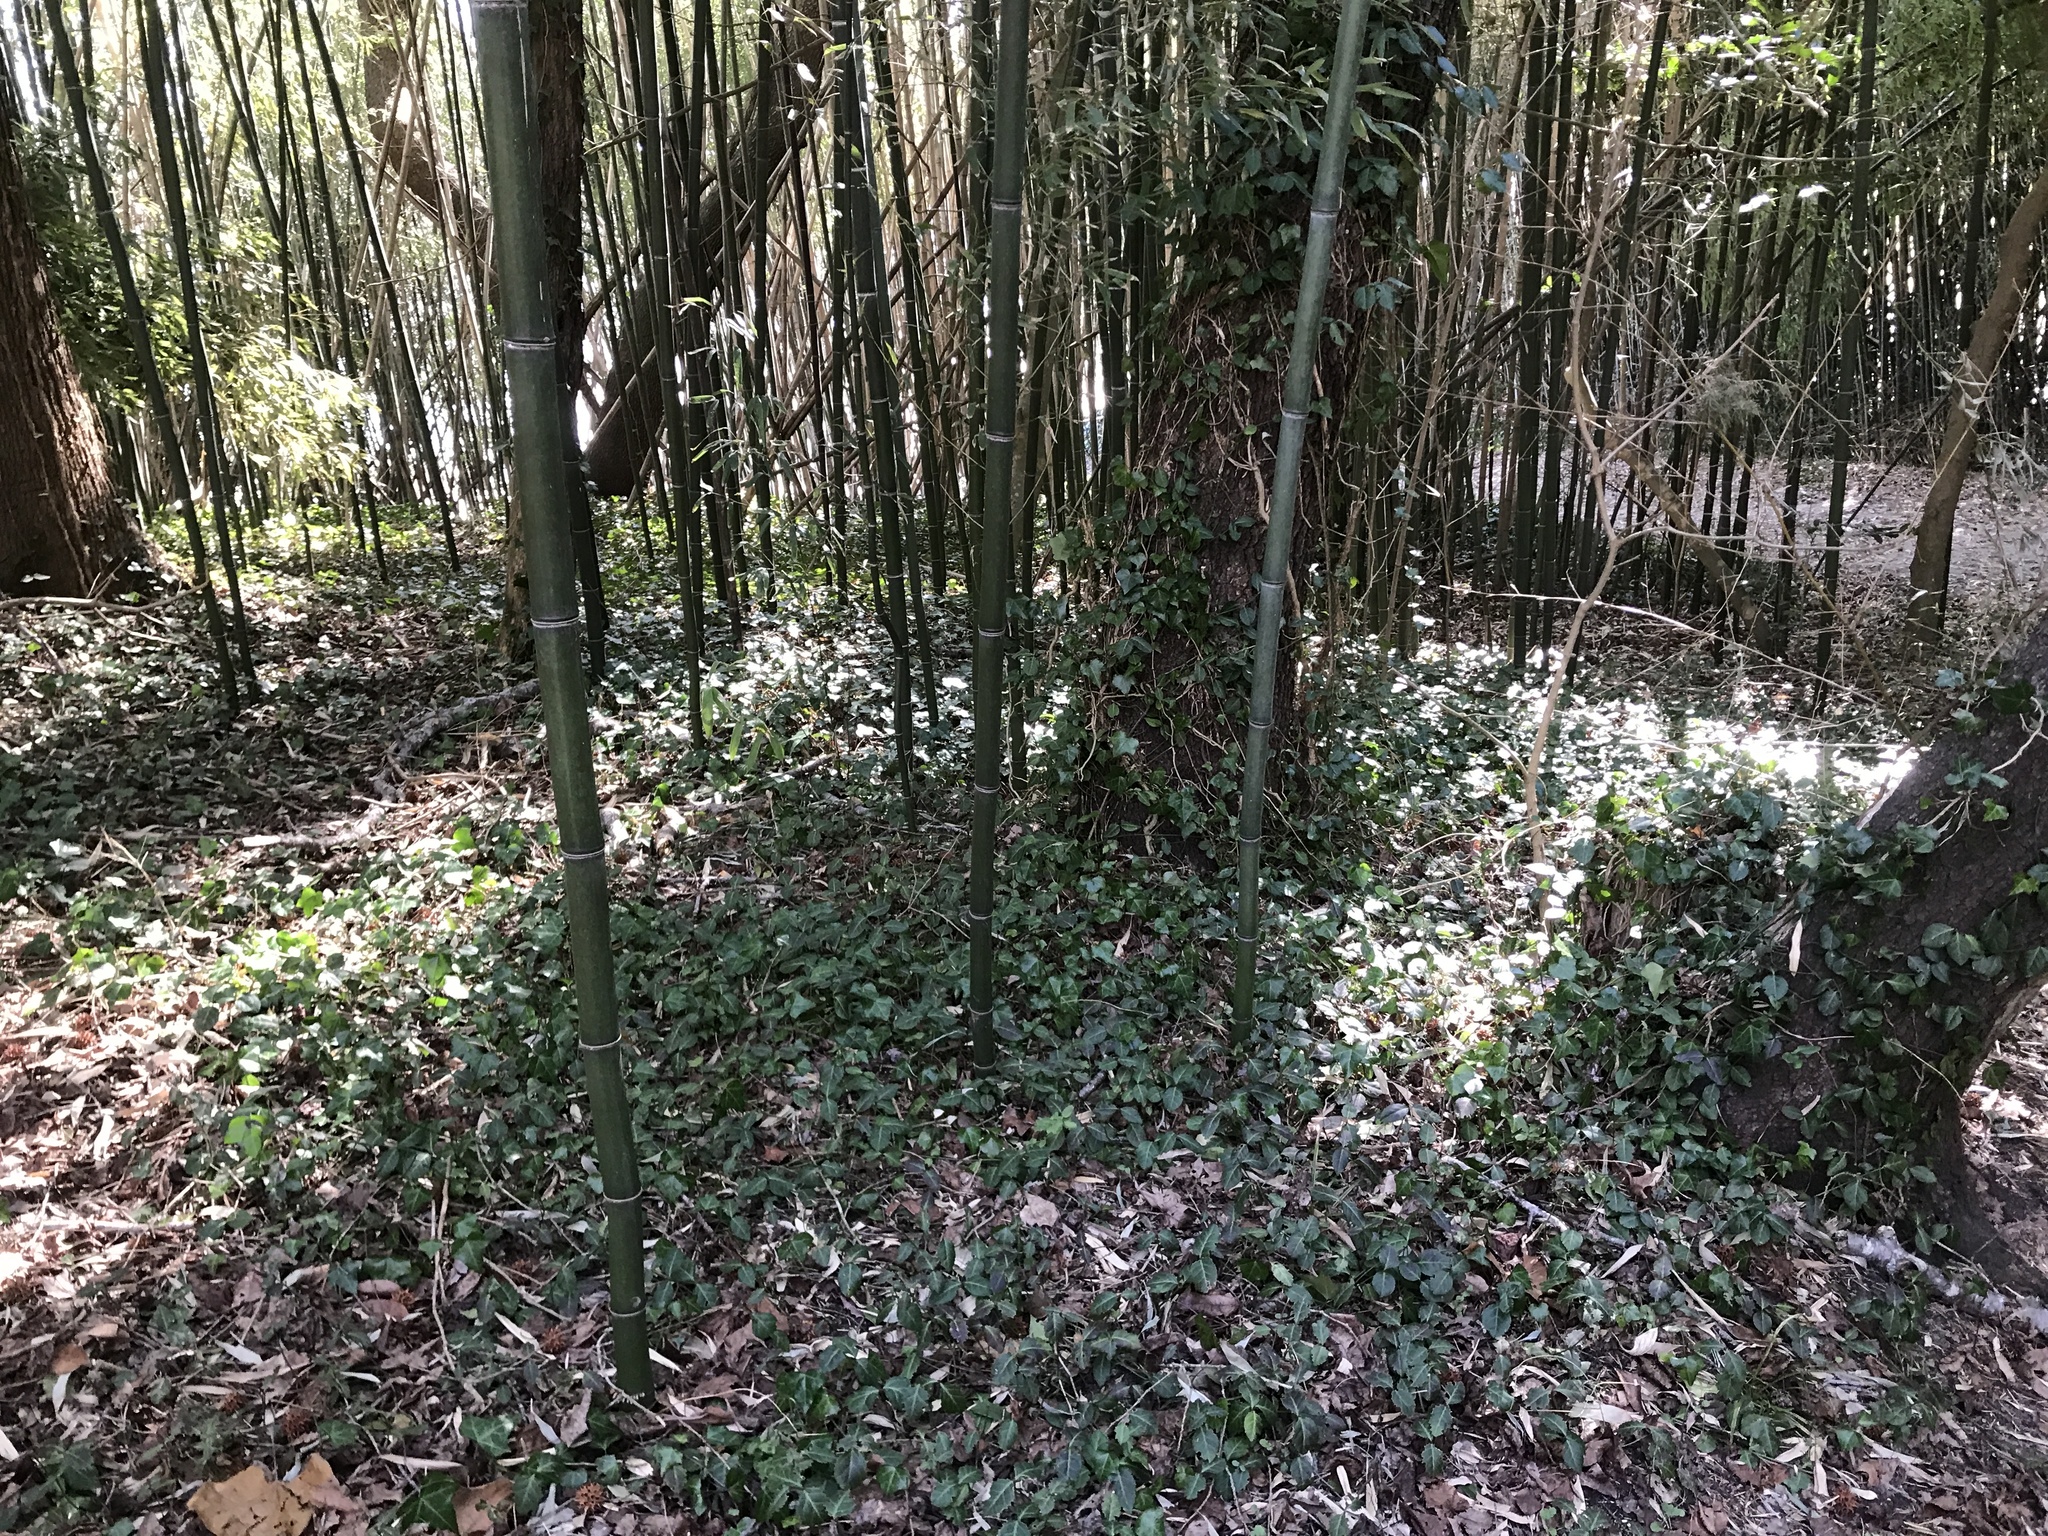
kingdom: Plantae
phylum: Tracheophyta
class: Magnoliopsida
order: Apiales
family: Araliaceae
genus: Hedera
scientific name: Hedera helix
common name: Ivy
